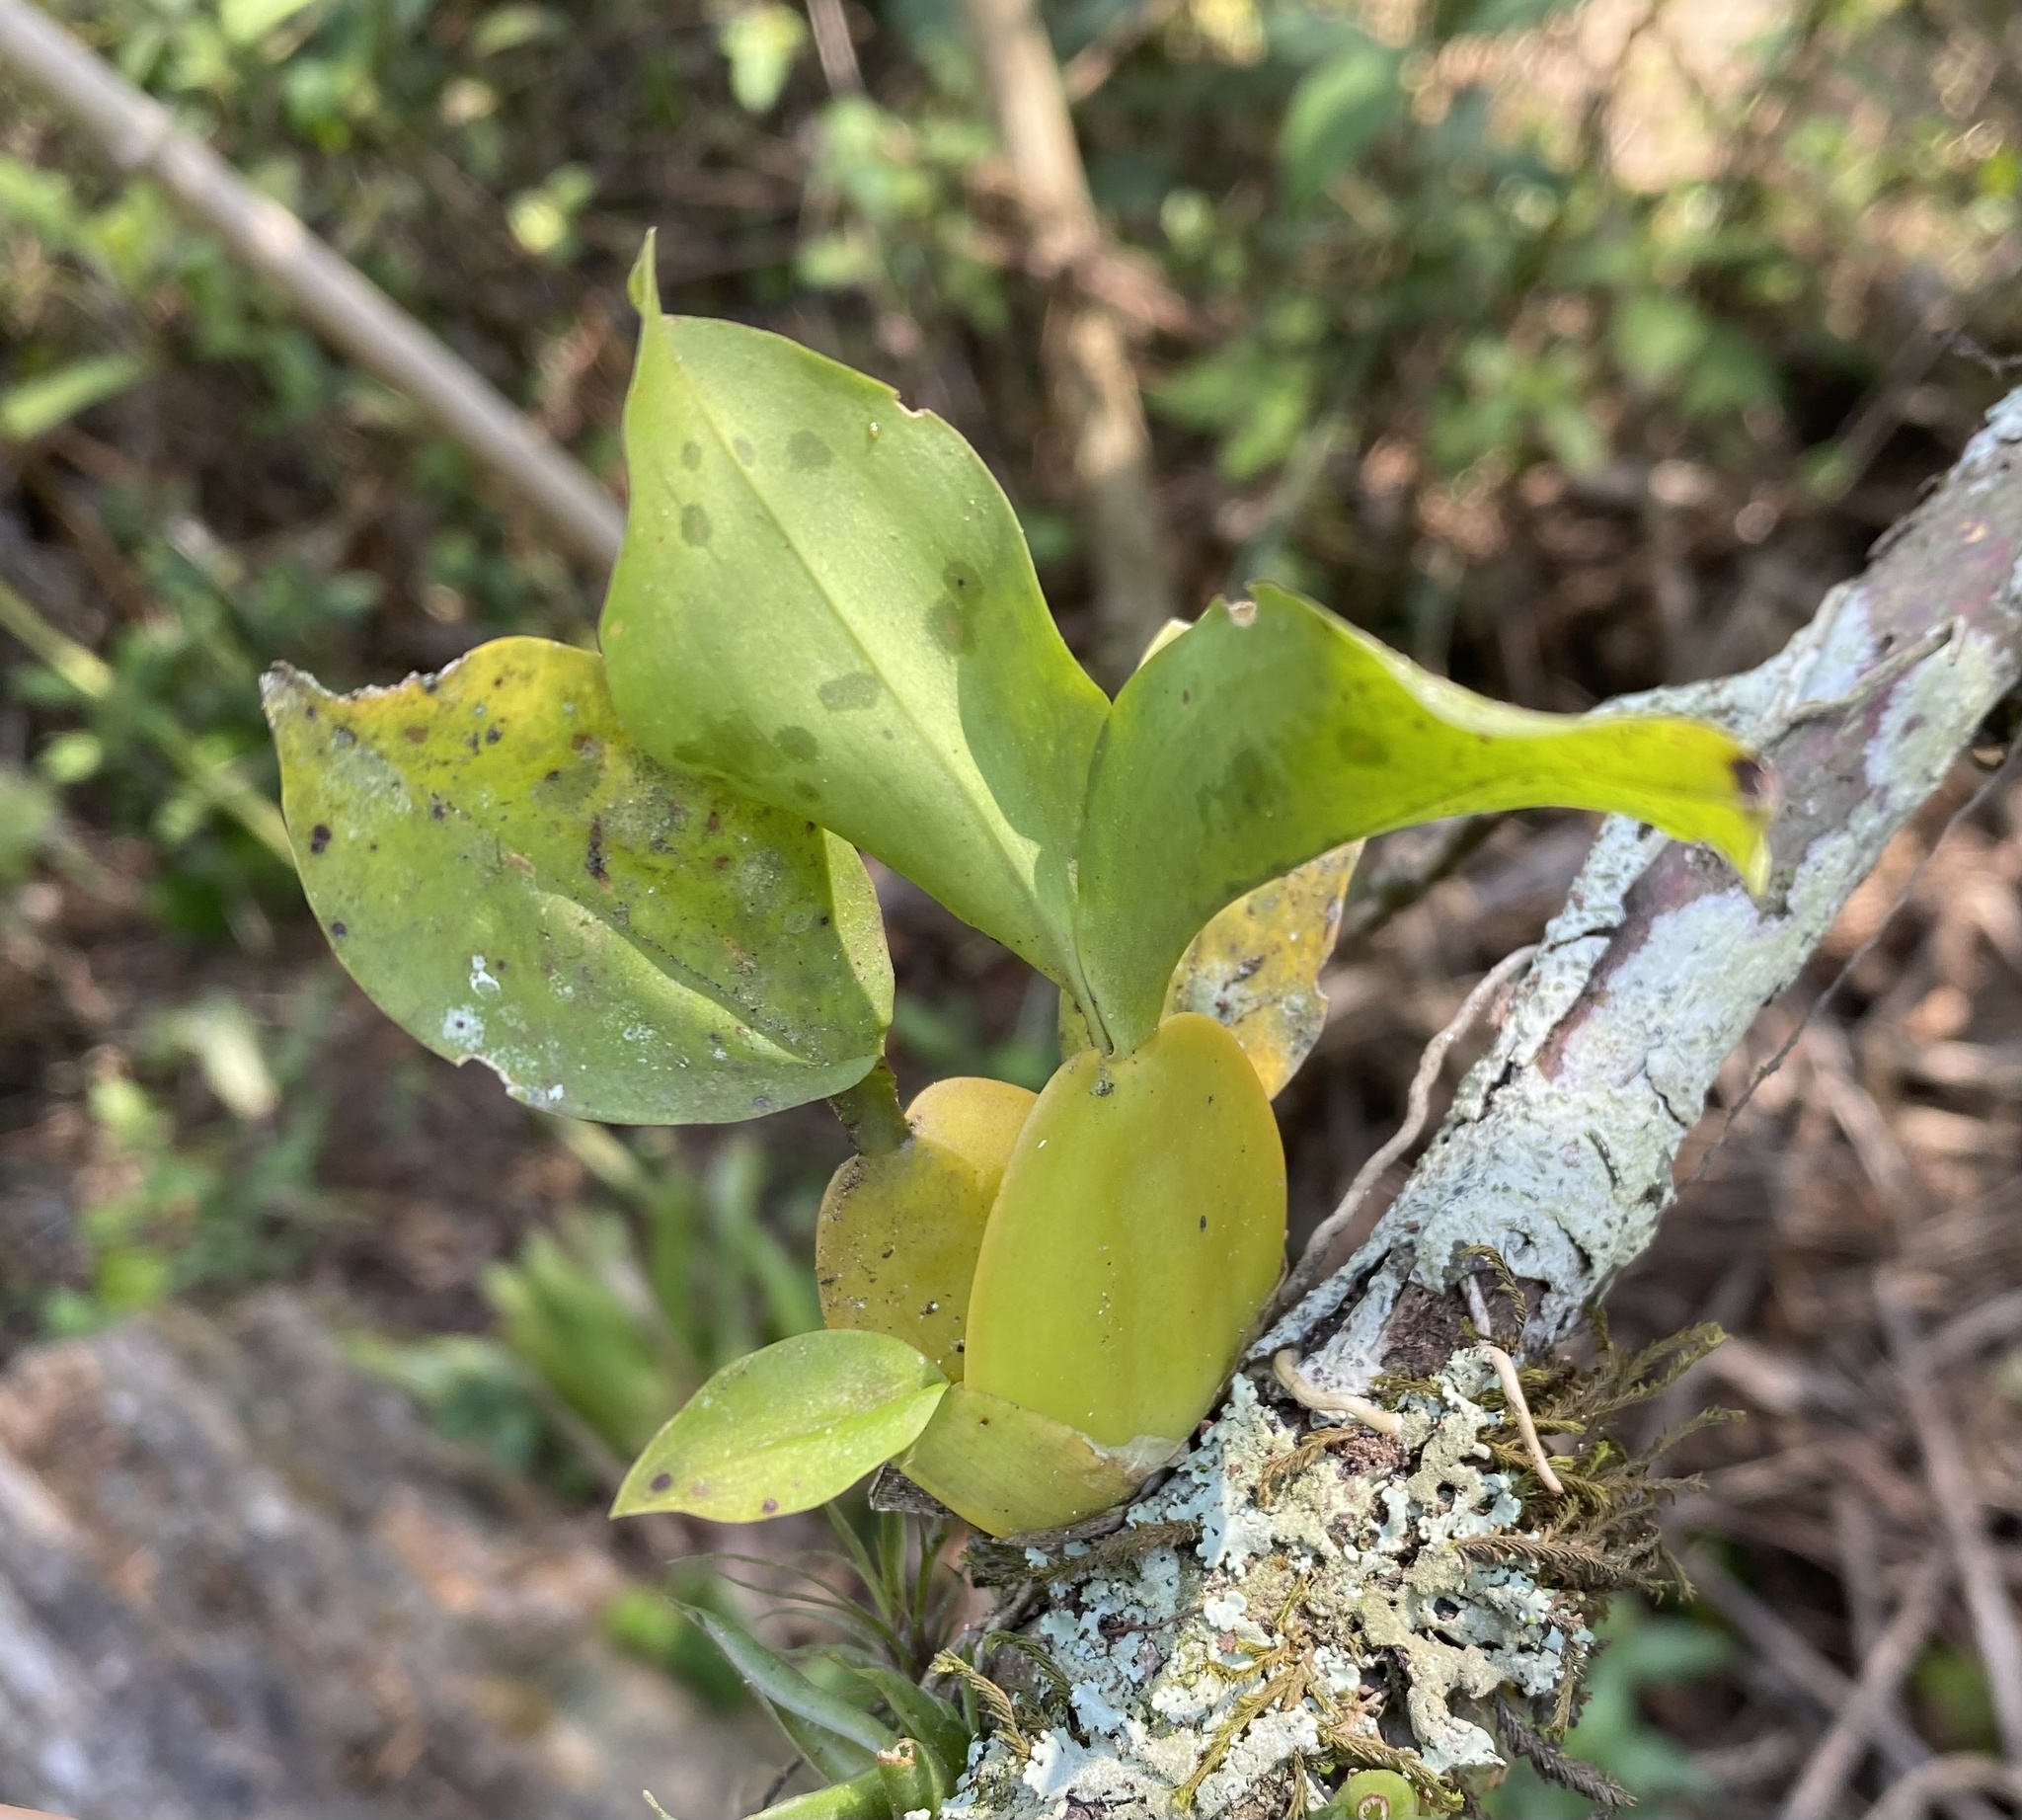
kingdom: Plantae
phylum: Tracheophyta
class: Liliopsida
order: Asparagales
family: Orchidaceae
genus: Oncidium
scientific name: Oncidium pergameneum
